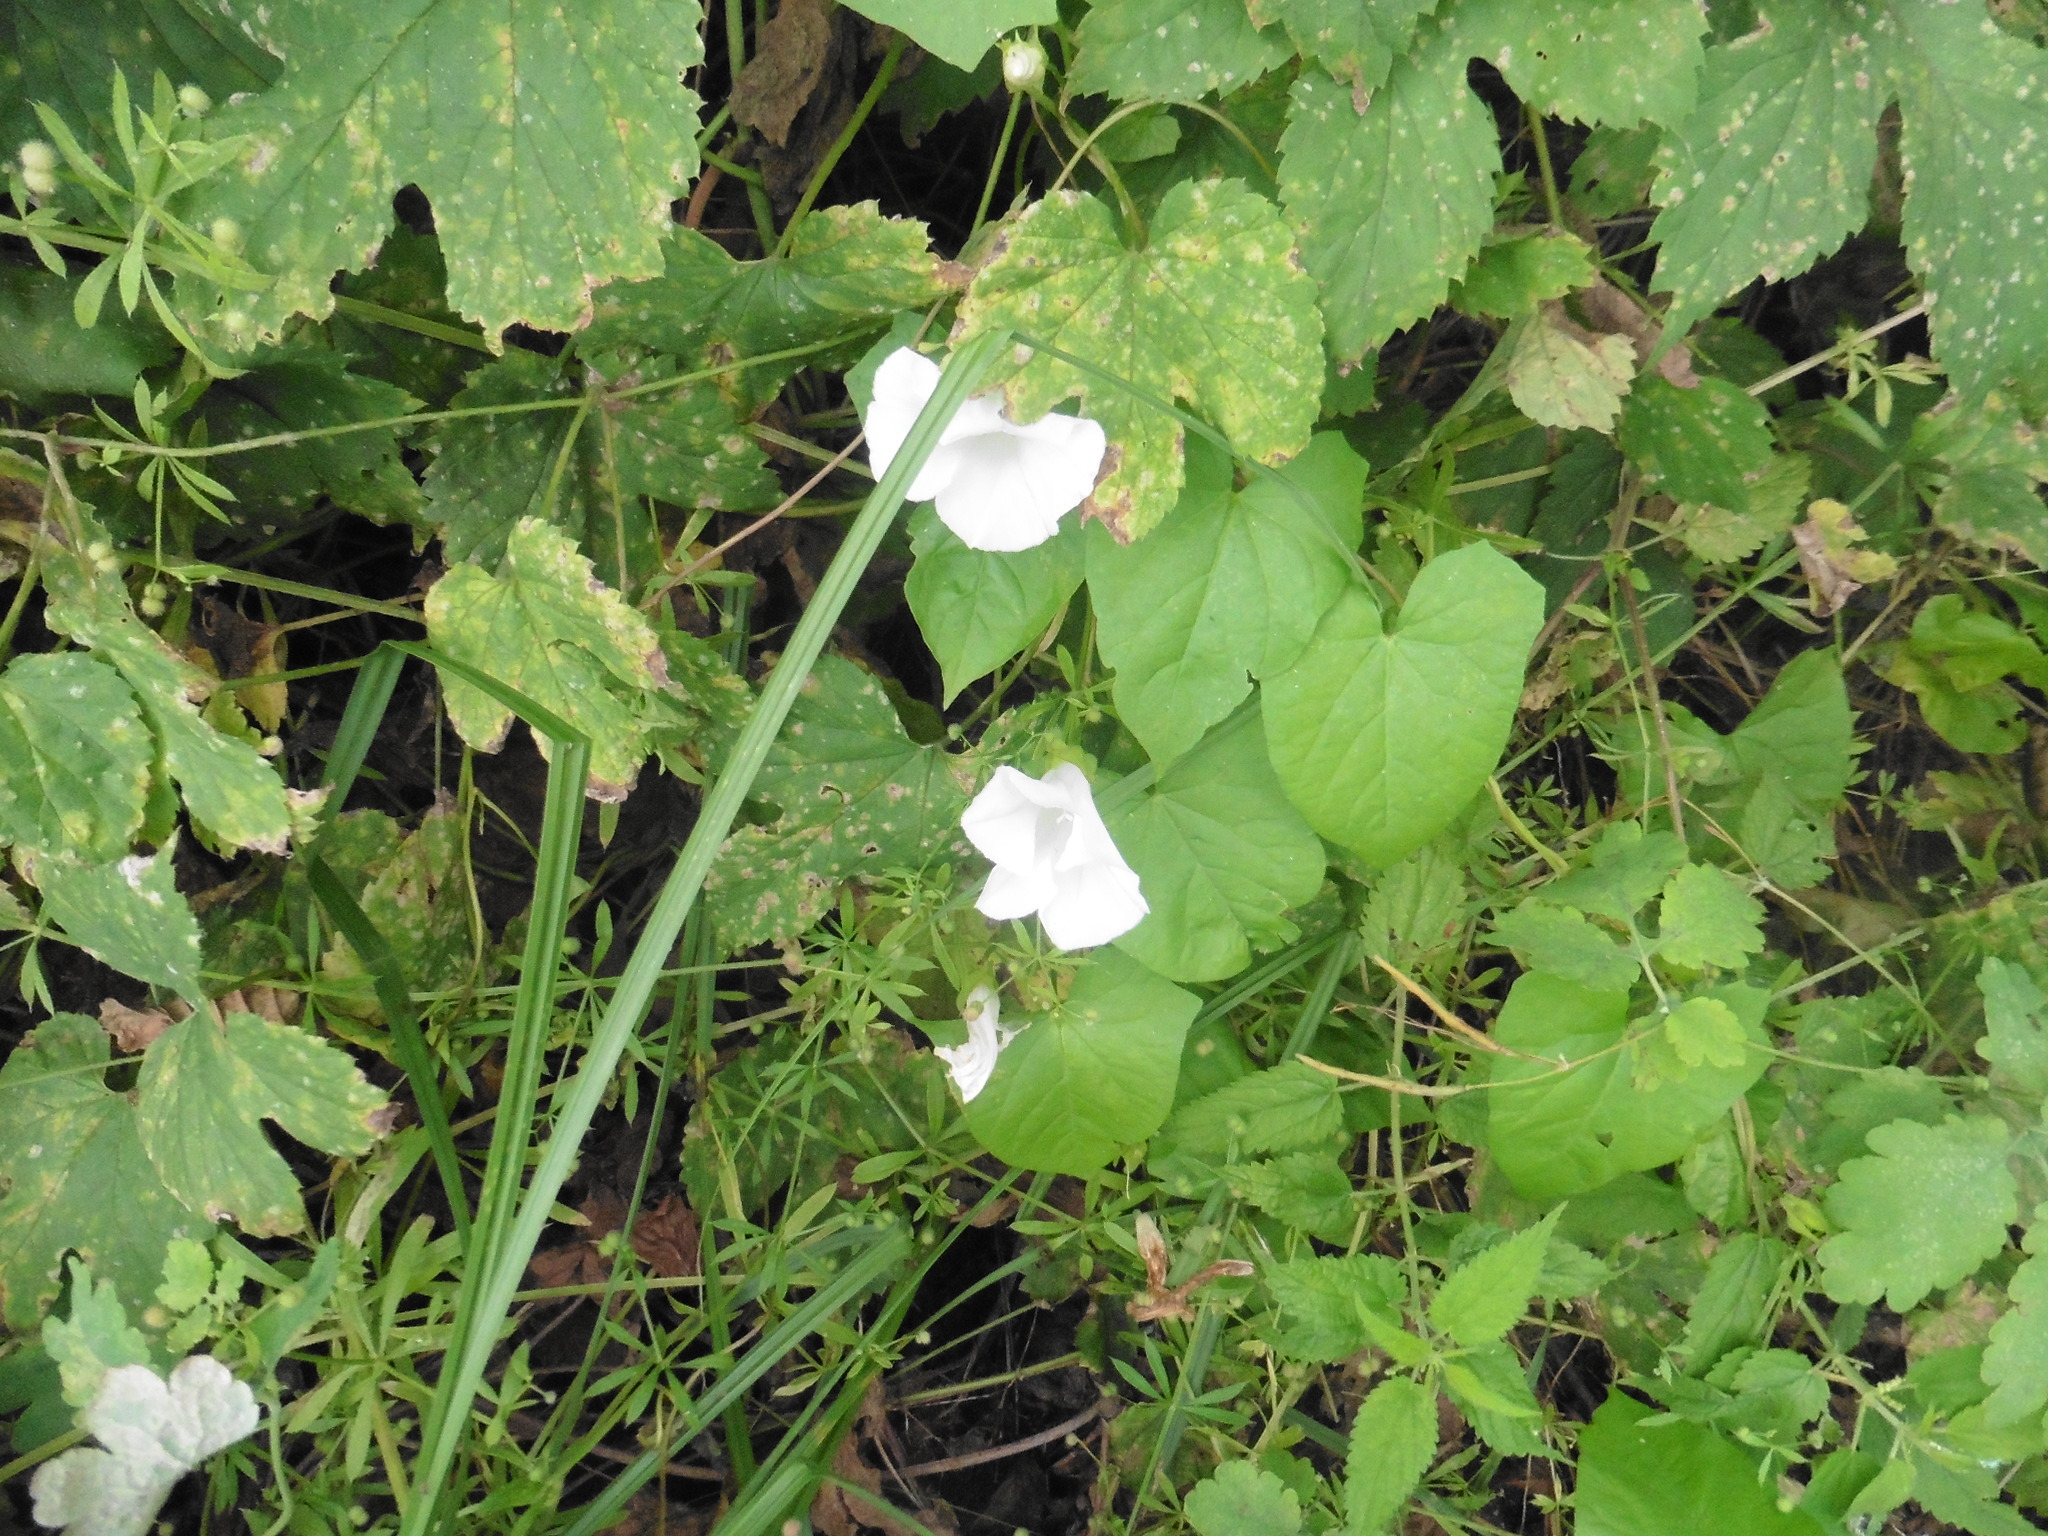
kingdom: Plantae
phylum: Tracheophyta
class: Magnoliopsida
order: Solanales
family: Convolvulaceae
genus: Calystegia
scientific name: Calystegia sepium
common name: Hedge bindweed
